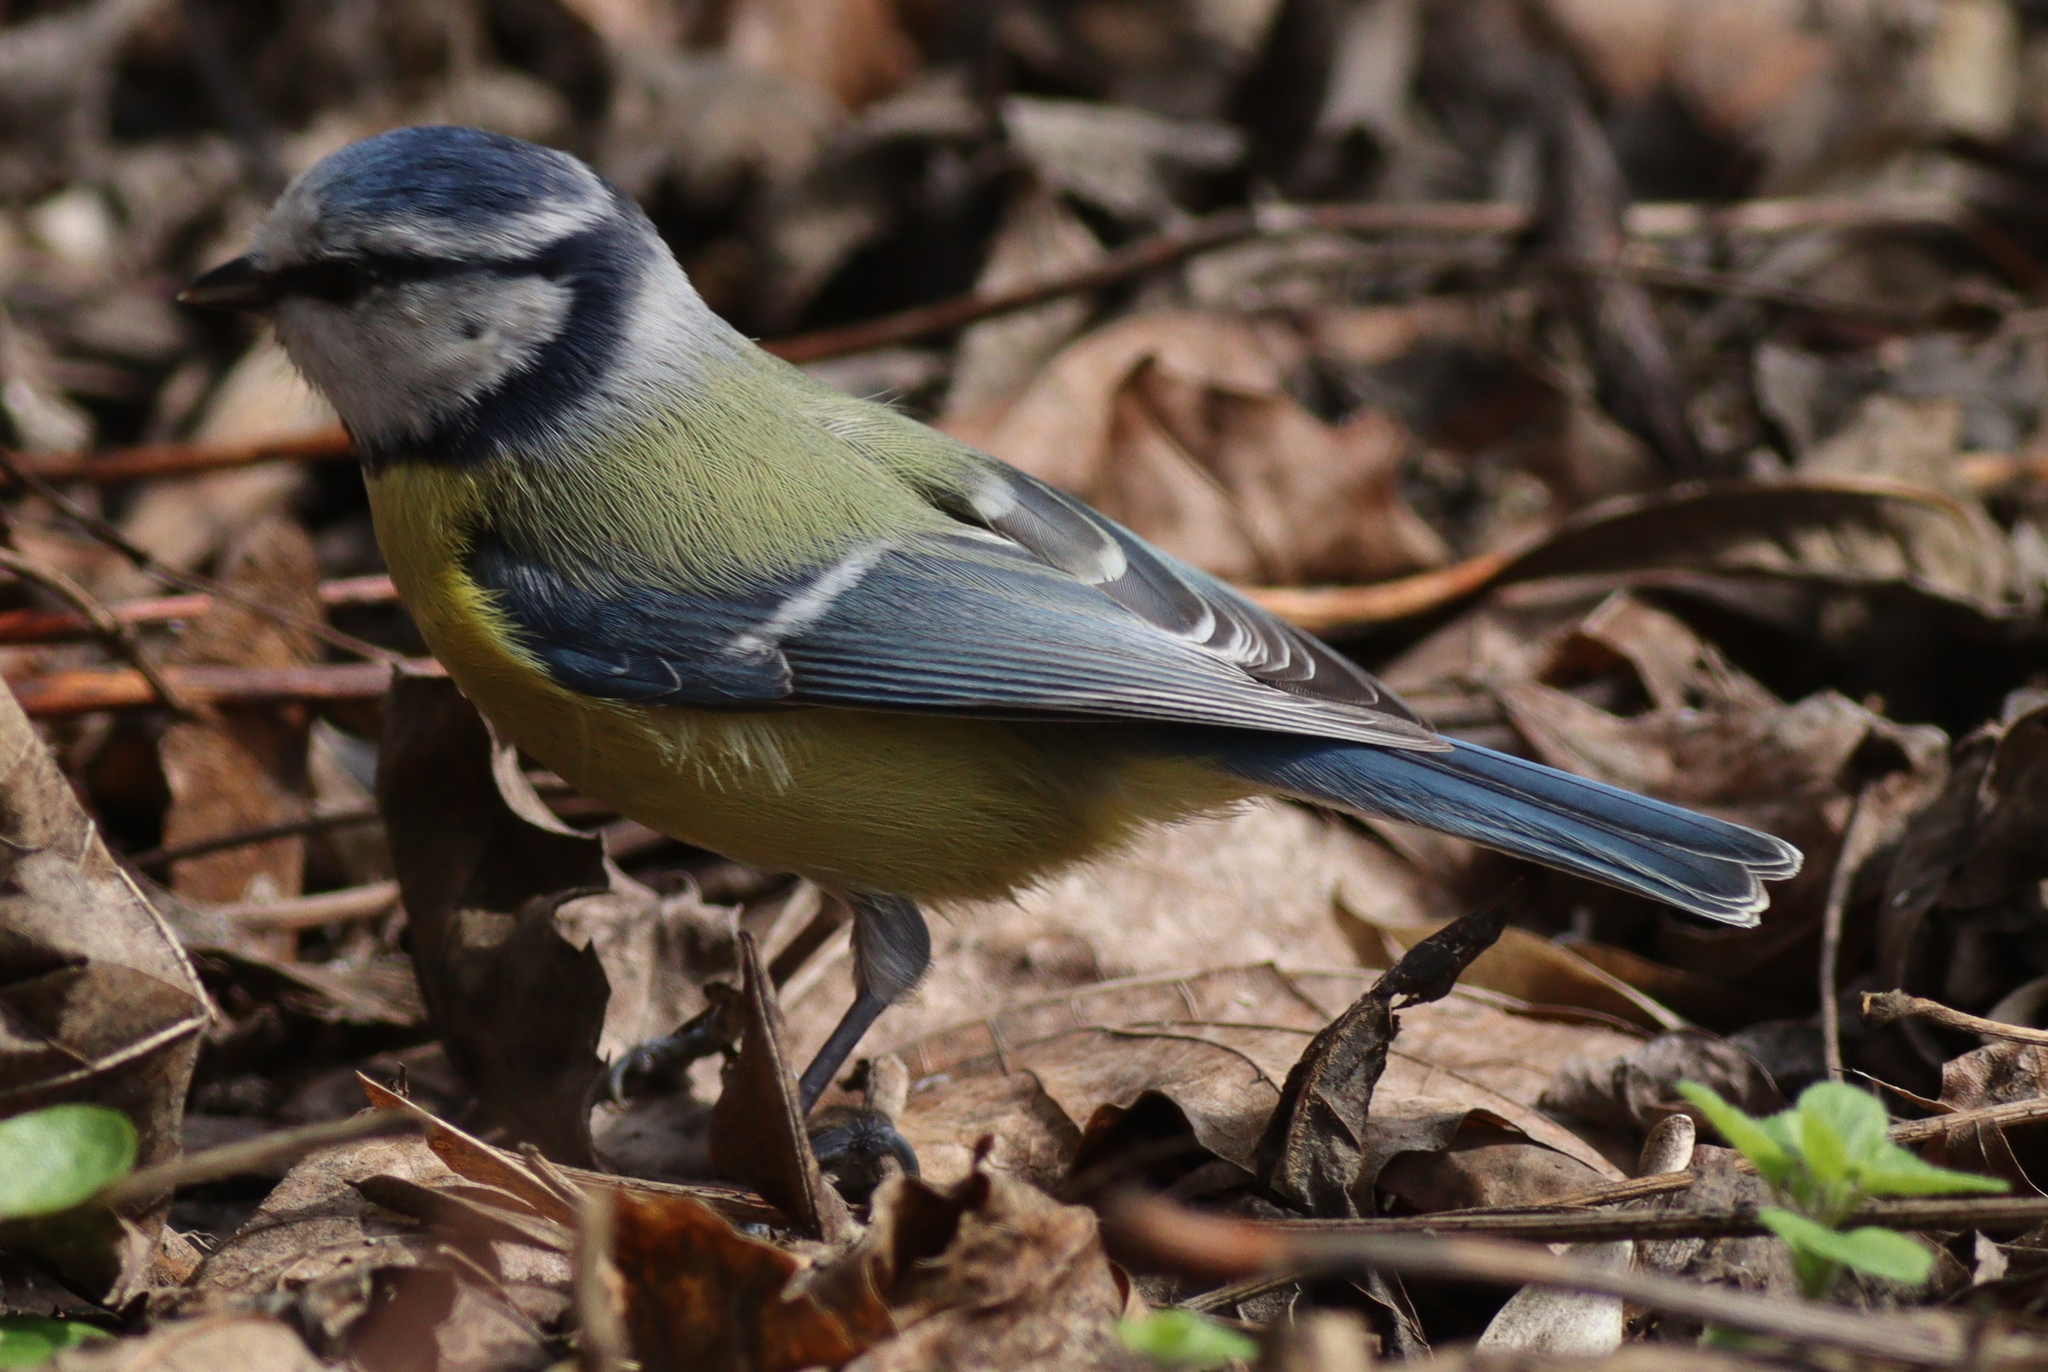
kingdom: Animalia
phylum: Chordata
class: Aves
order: Passeriformes
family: Paridae
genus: Cyanistes
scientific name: Cyanistes caeruleus
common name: Eurasian blue tit
